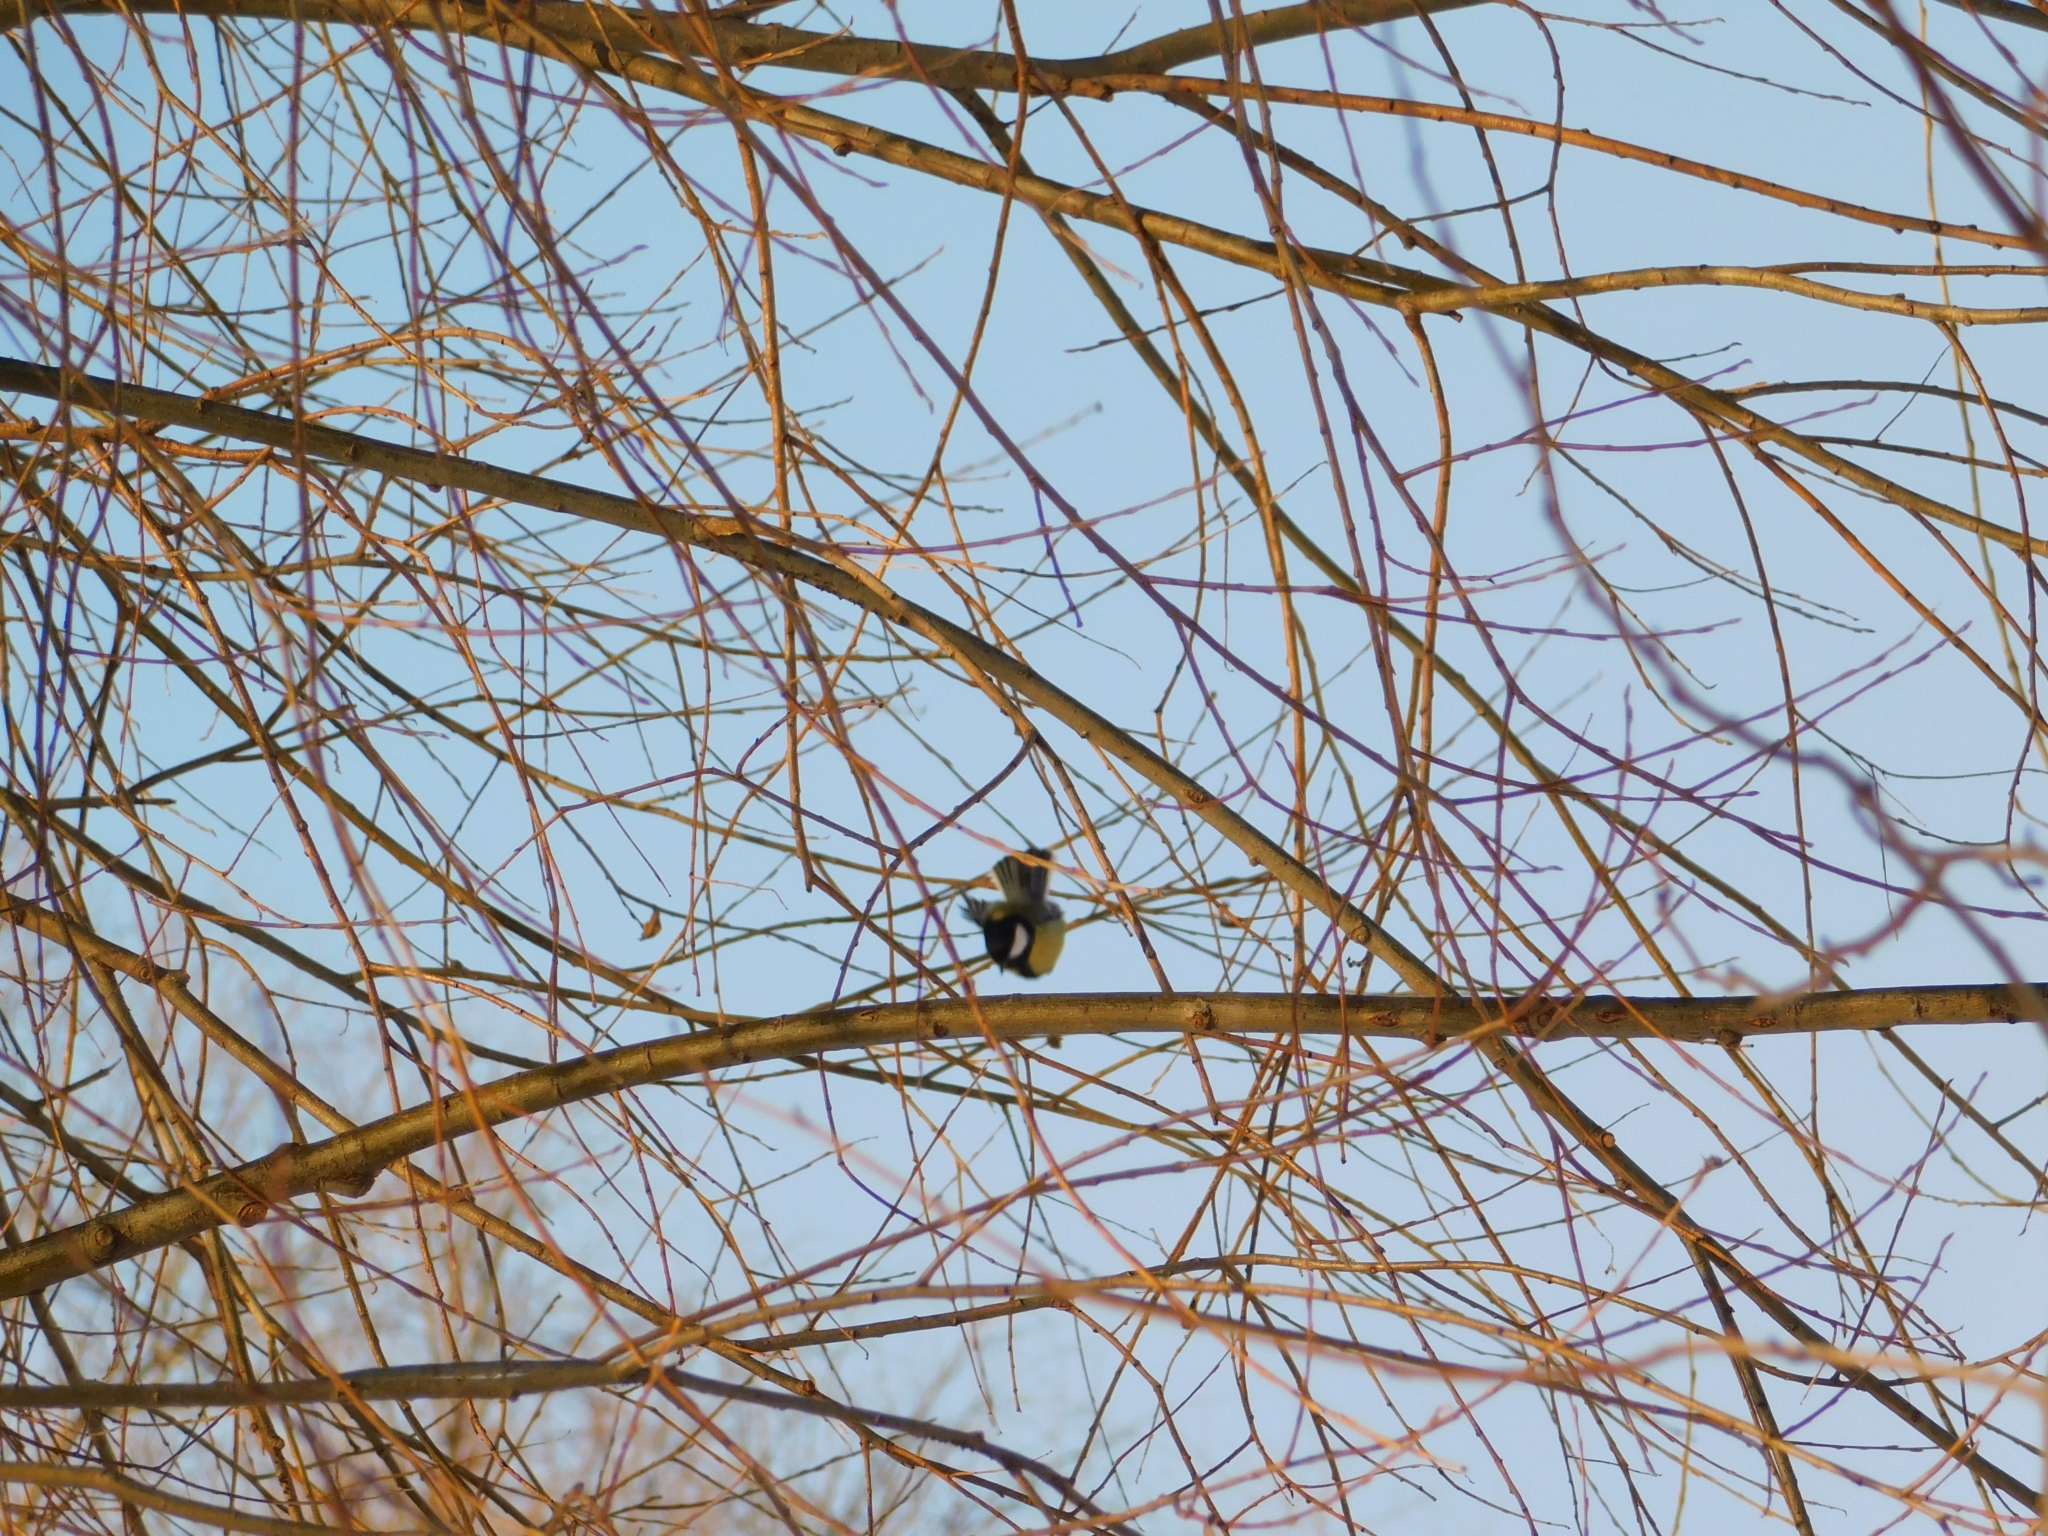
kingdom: Animalia
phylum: Chordata
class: Aves
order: Passeriformes
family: Paridae
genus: Parus
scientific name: Parus major
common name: Great tit
